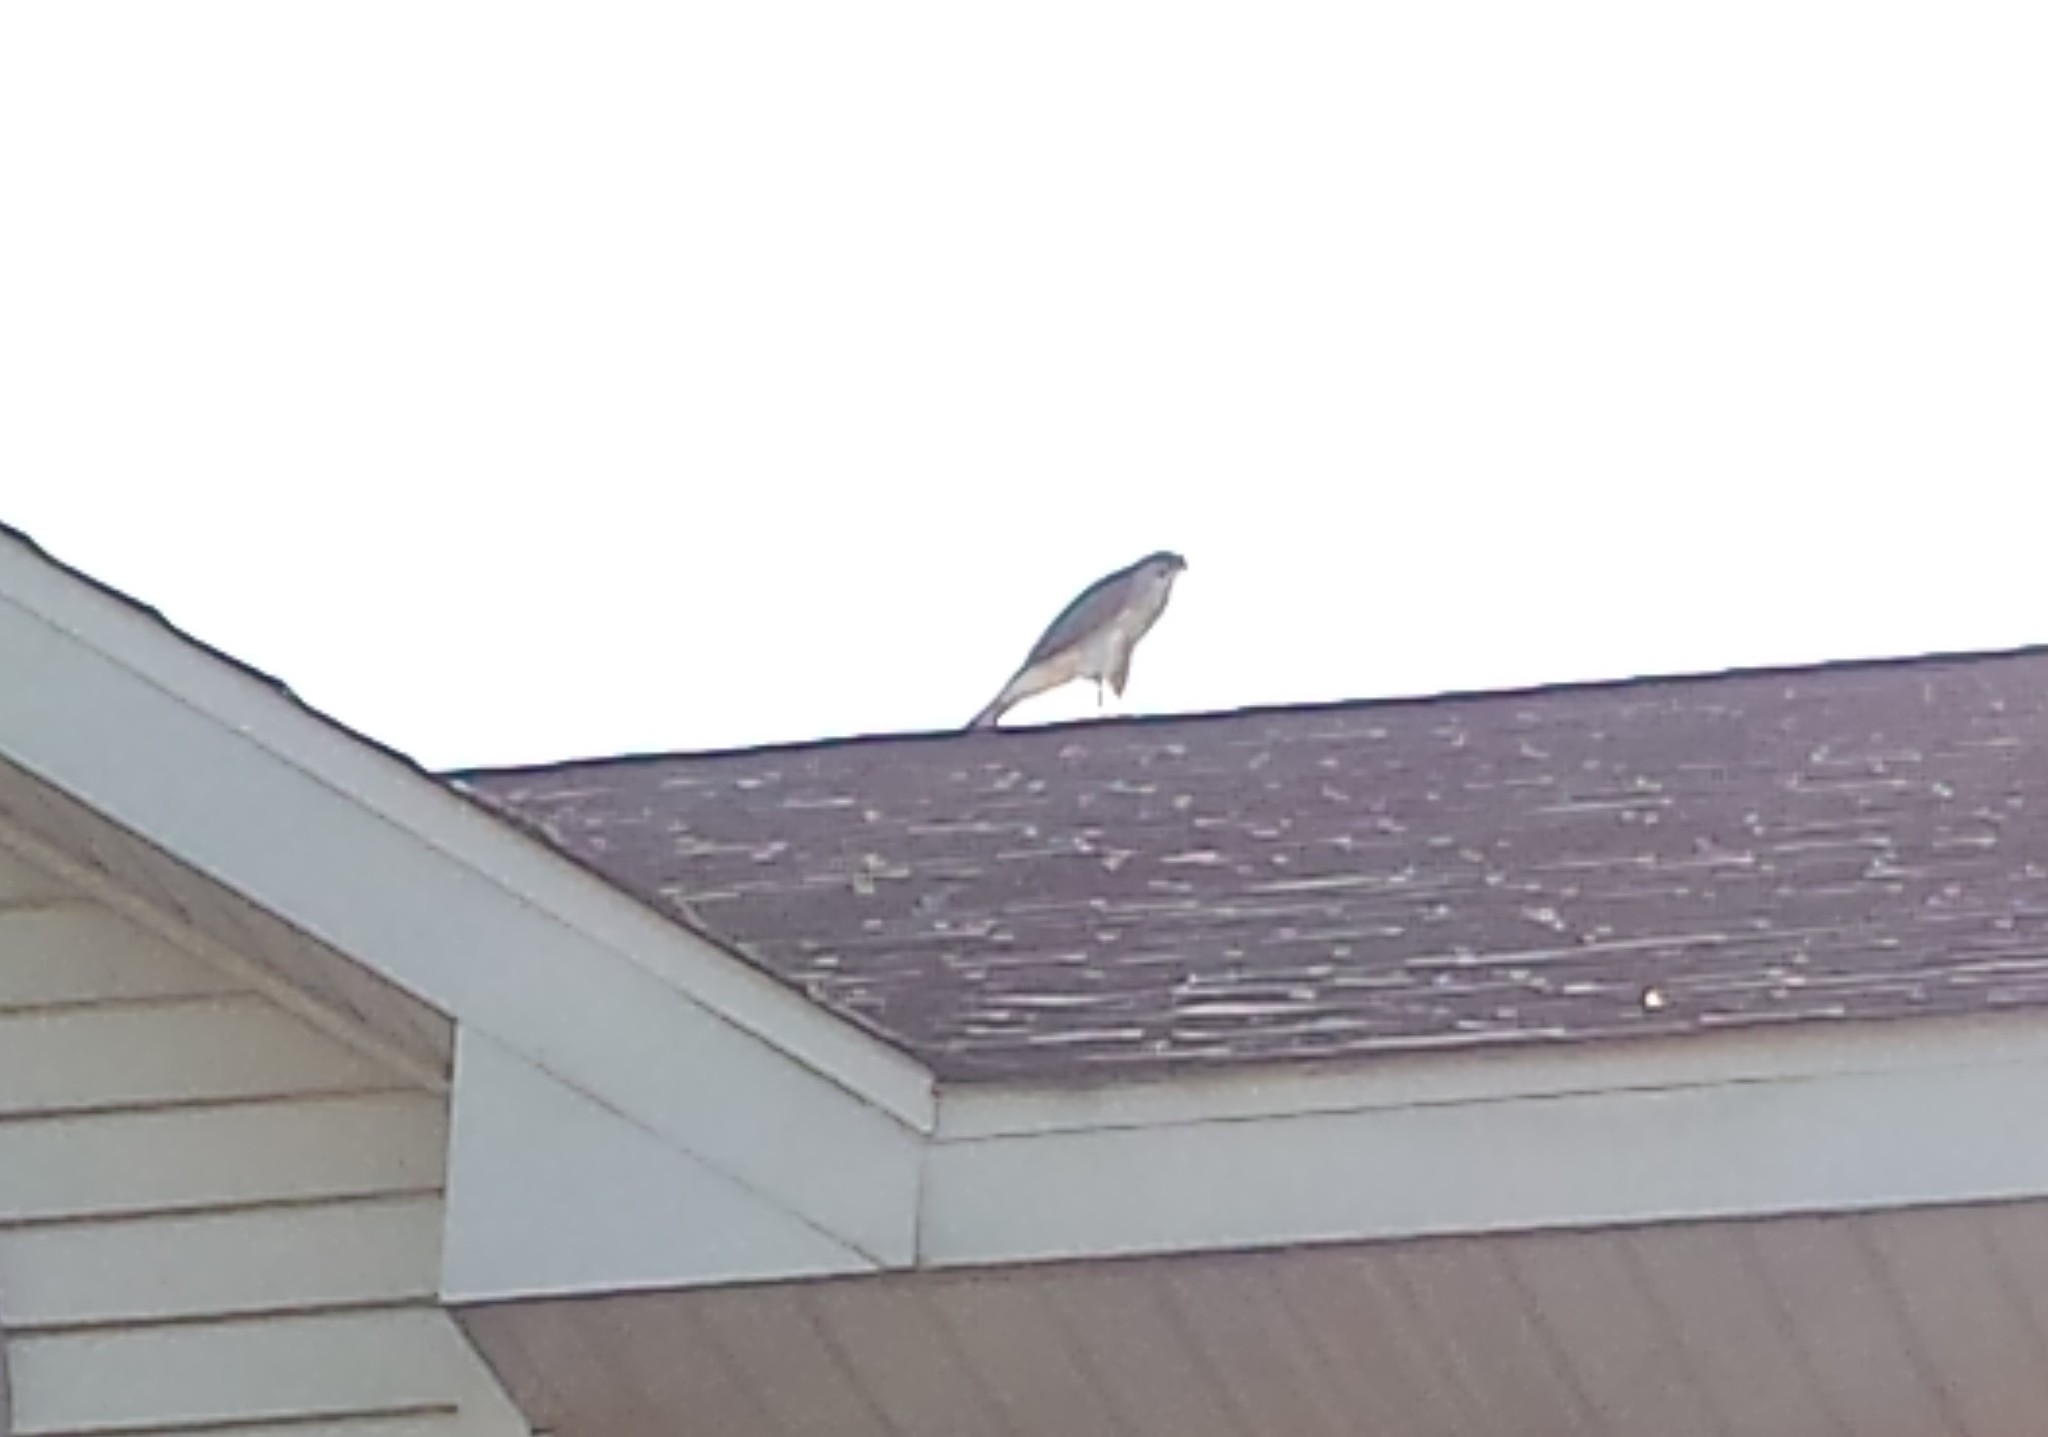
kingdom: Animalia
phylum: Chordata
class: Aves
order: Accipitriformes
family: Accipitridae
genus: Accipiter
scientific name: Accipiter cooperii
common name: Cooper's hawk
